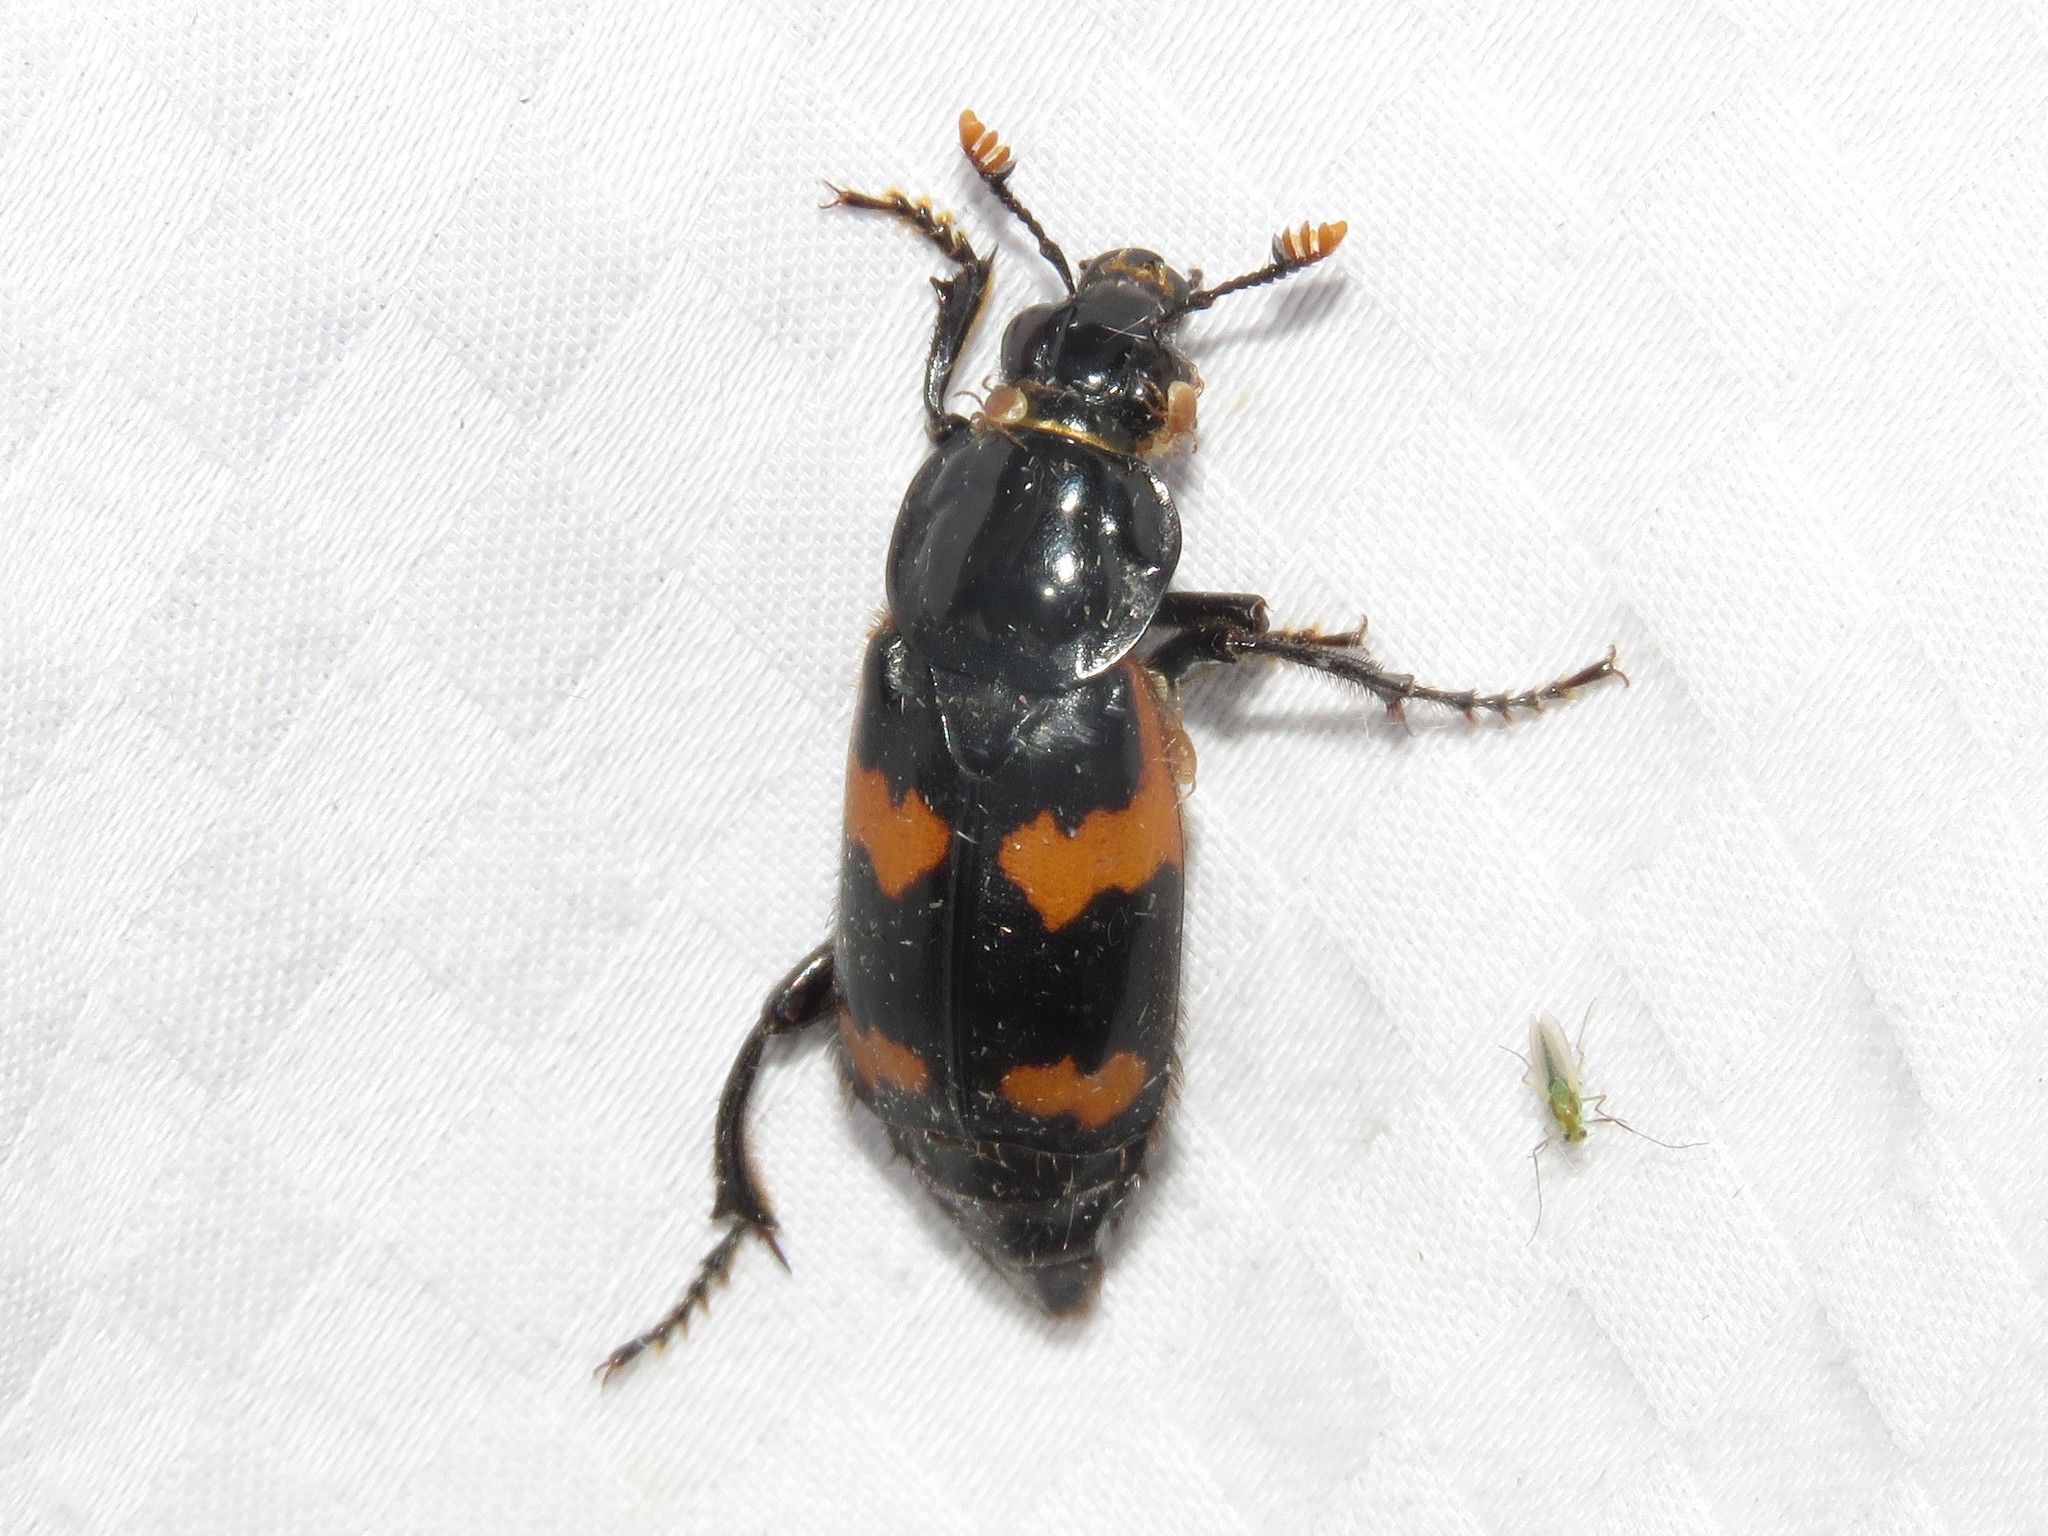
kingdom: Animalia
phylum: Arthropoda
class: Insecta
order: Coleoptera
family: Staphylinidae
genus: Nicrophorus
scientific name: Nicrophorus sayi
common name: Say's burying beetle
